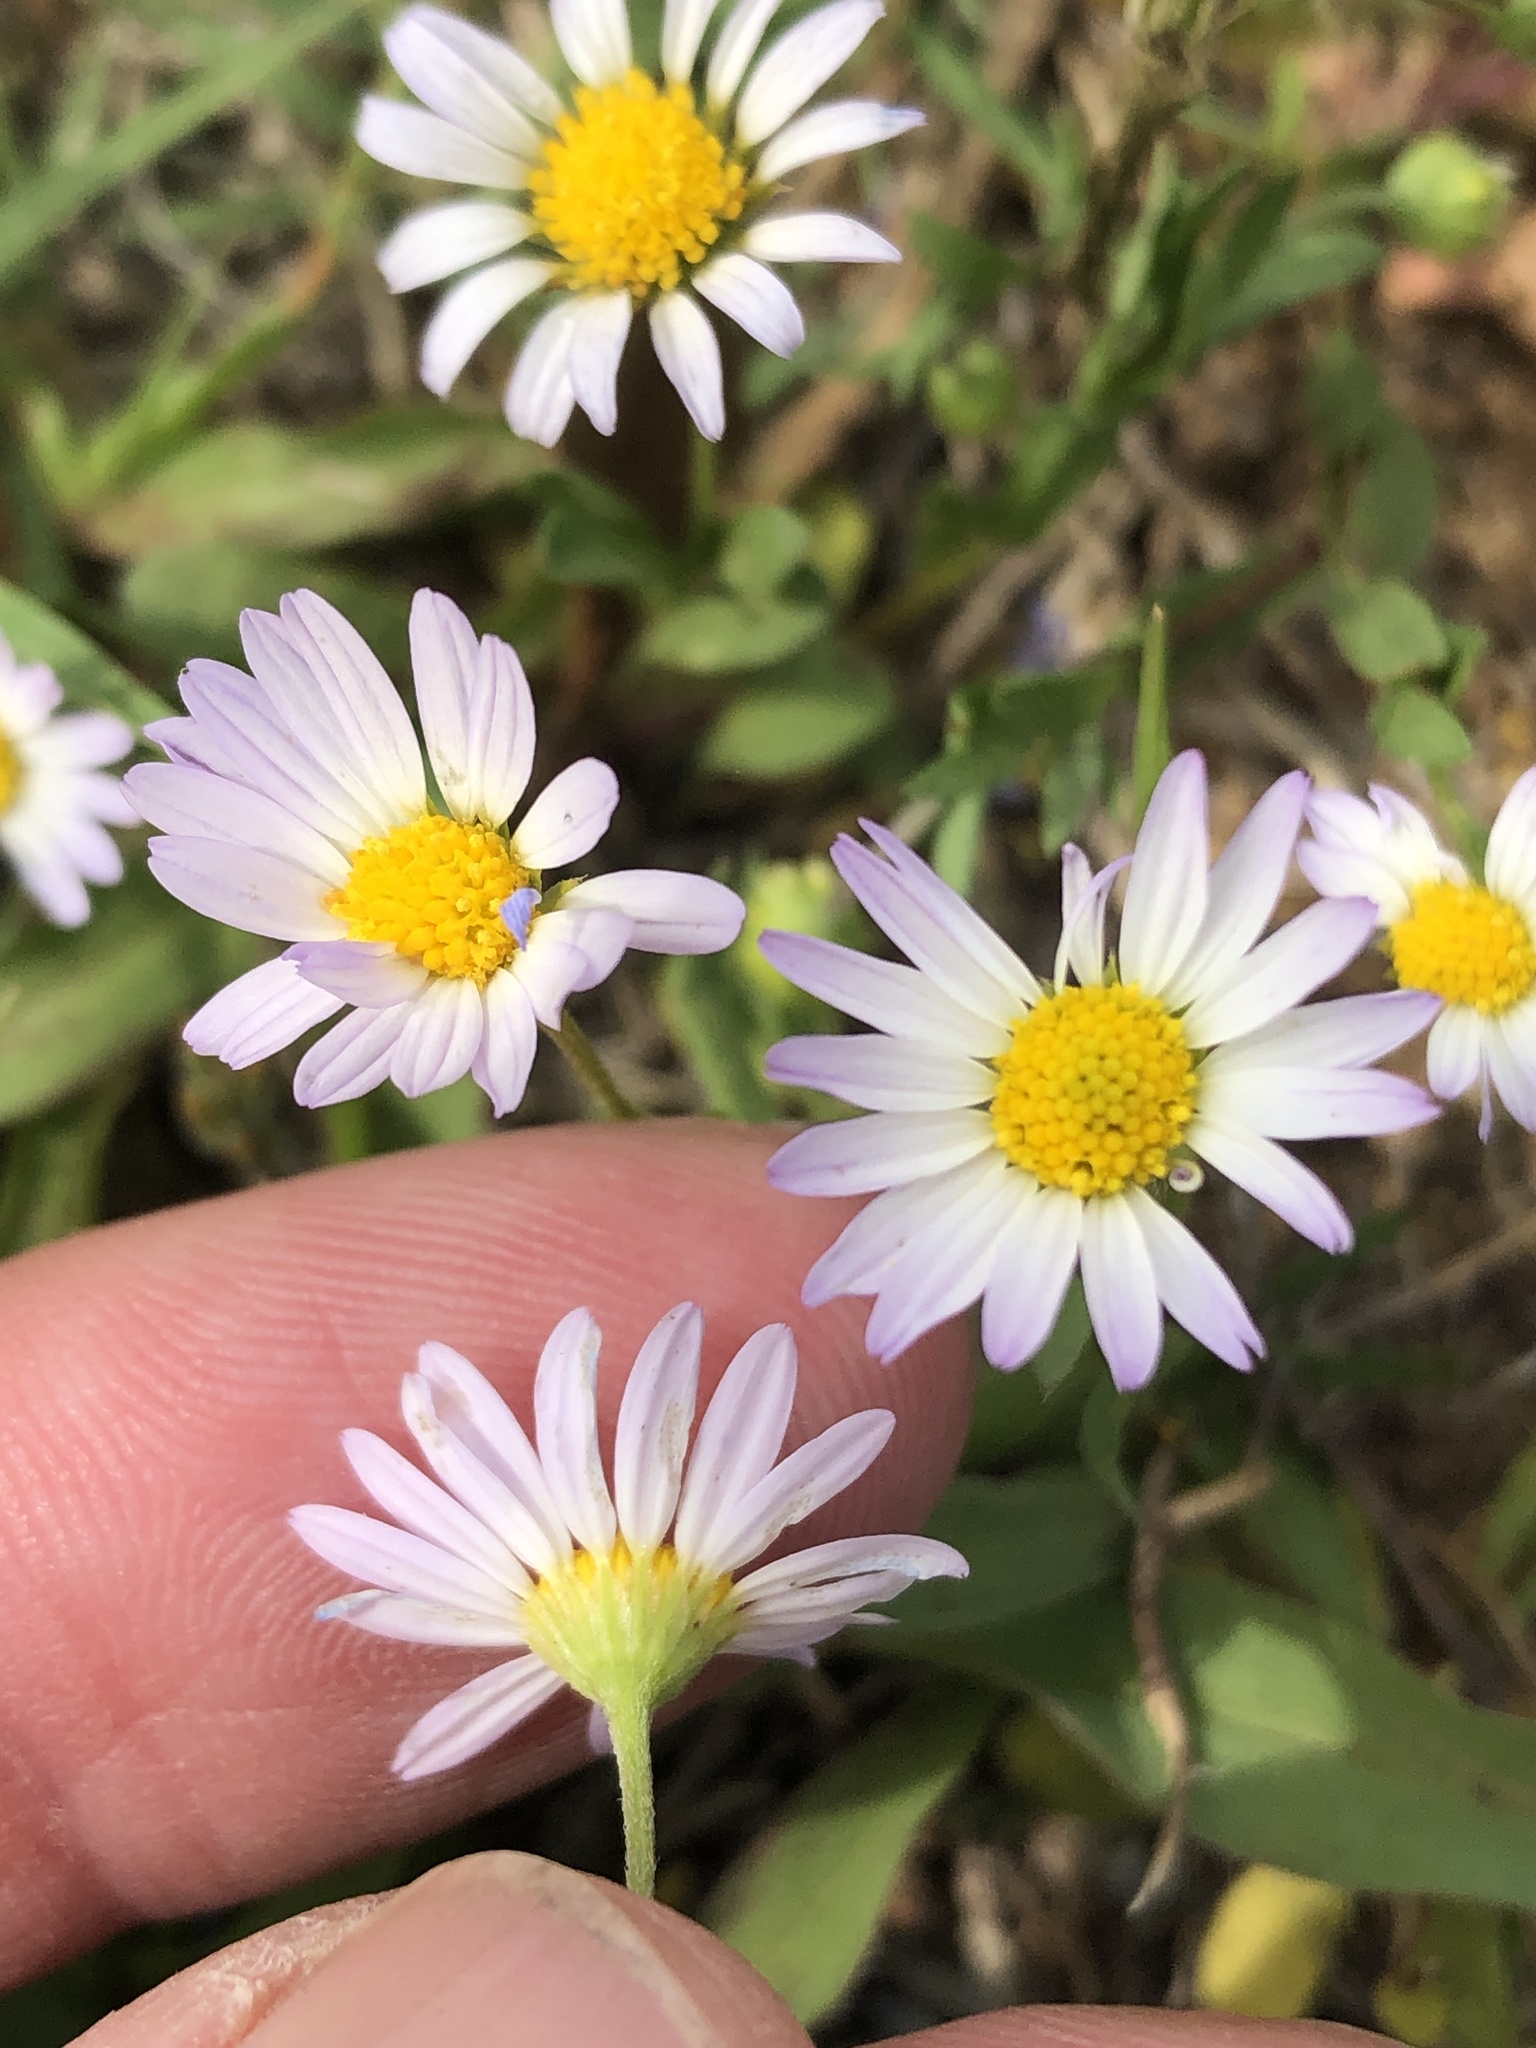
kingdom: Plantae
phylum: Tracheophyta
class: Magnoliopsida
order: Asterales
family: Asteraceae
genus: Astranthium
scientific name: Astranthium ciliatum
